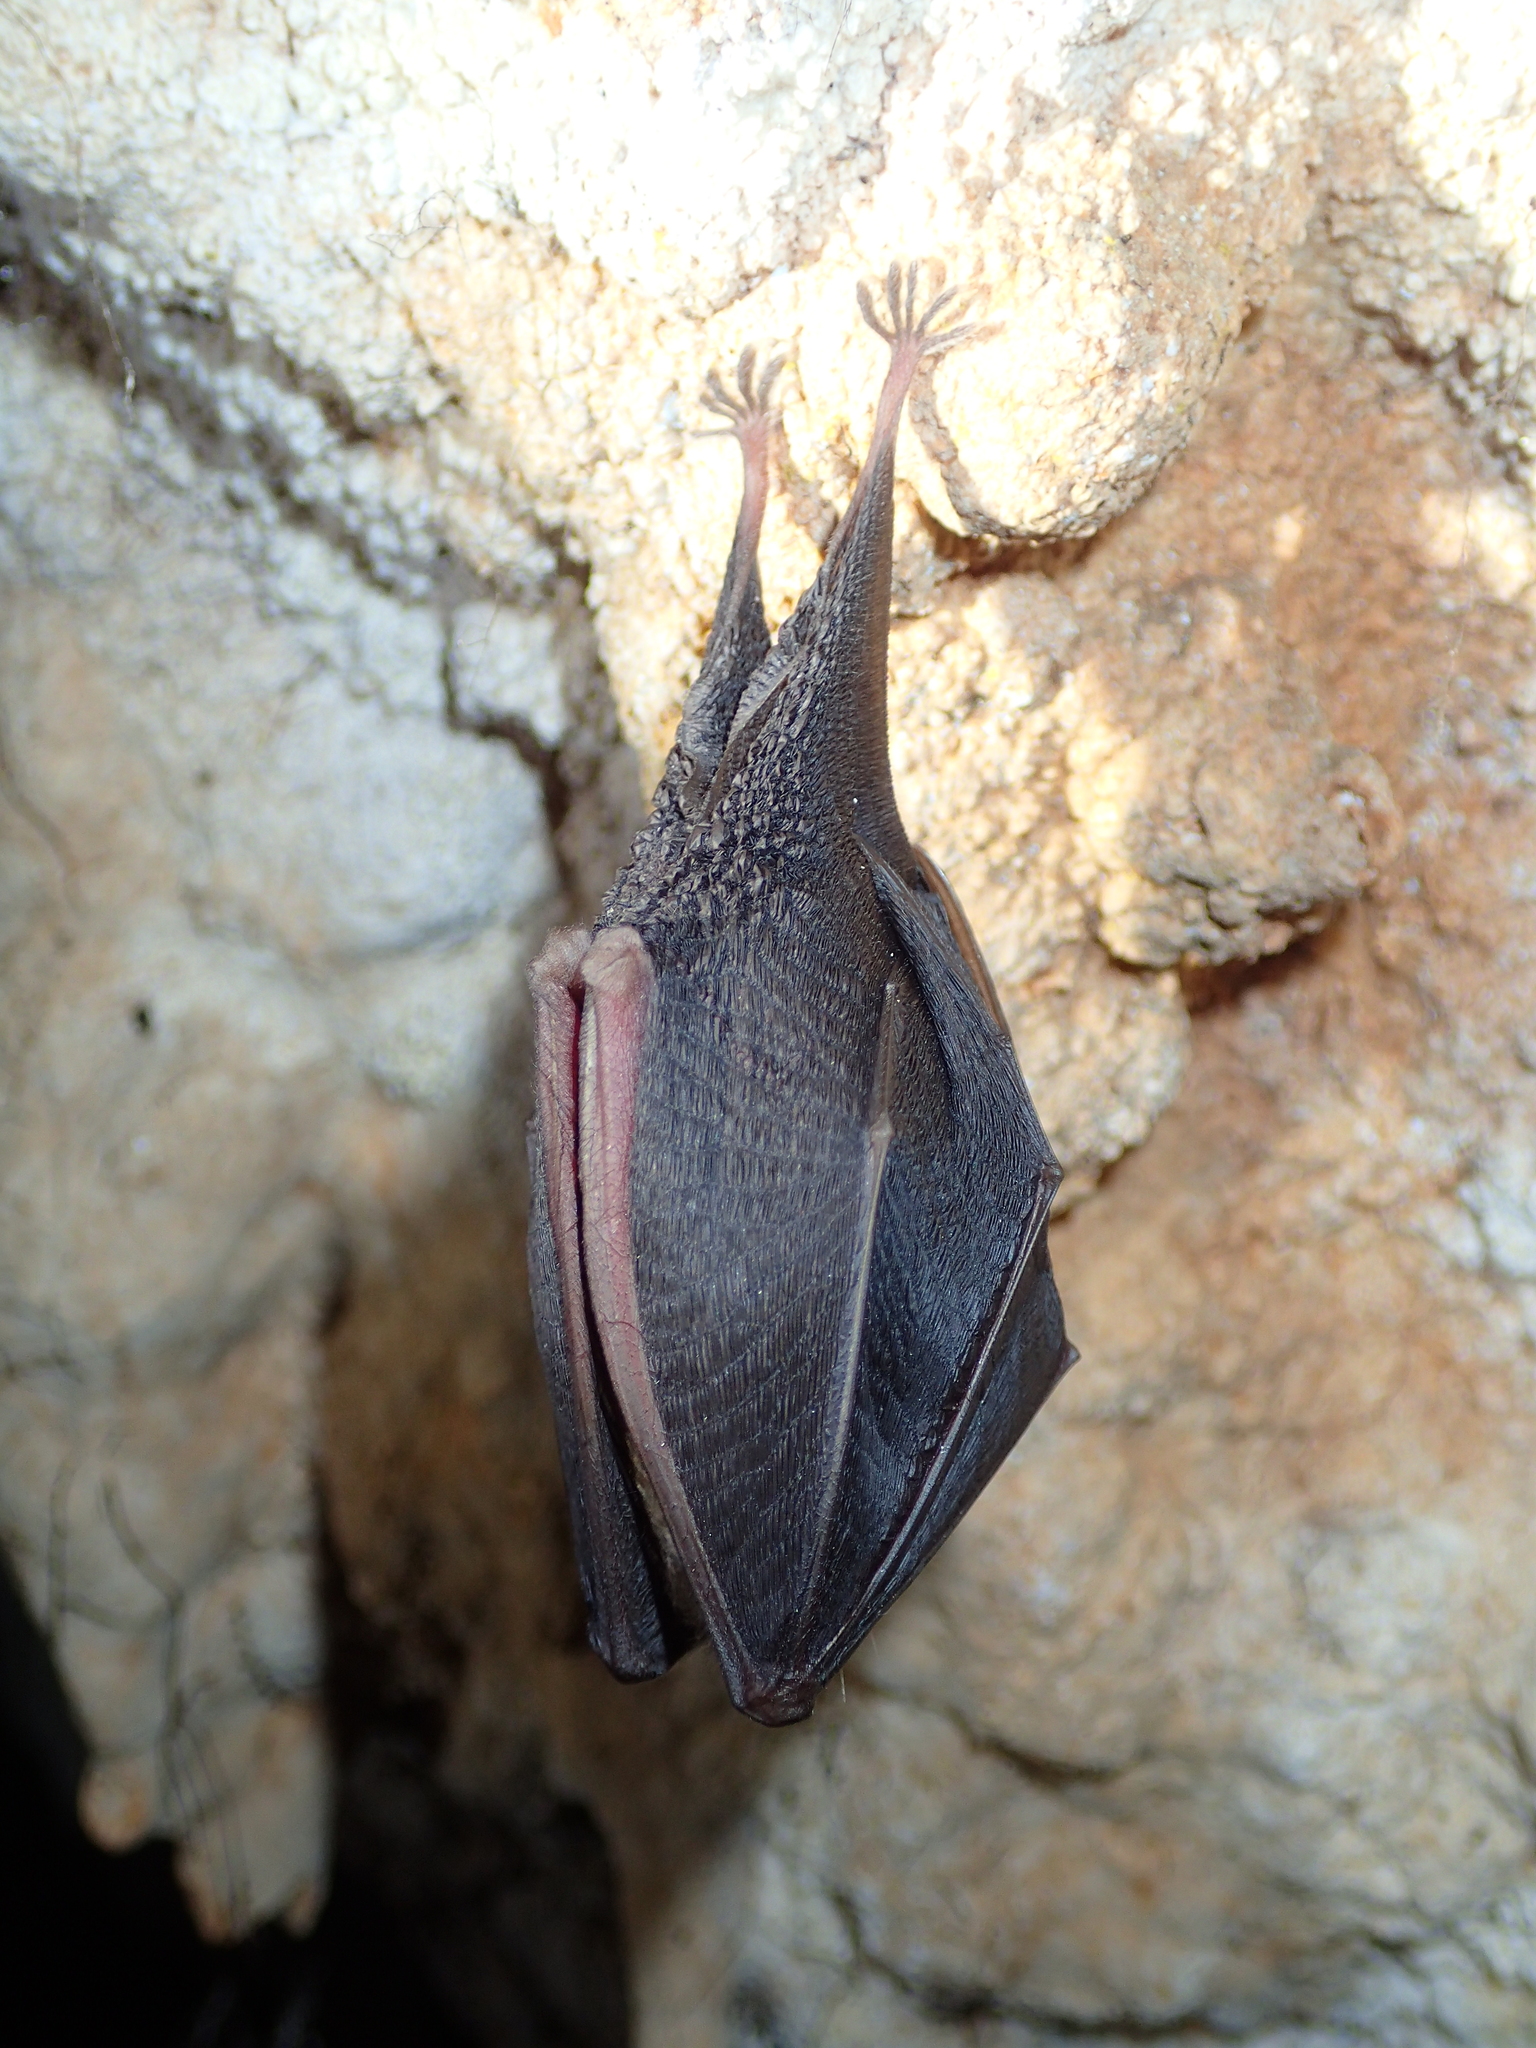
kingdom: Animalia
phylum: Chordata
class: Mammalia
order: Chiroptera
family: Rhinolophidae
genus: Rhinolophus
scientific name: Rhinolophus hipposideros
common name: Lesser horseshoe bat
